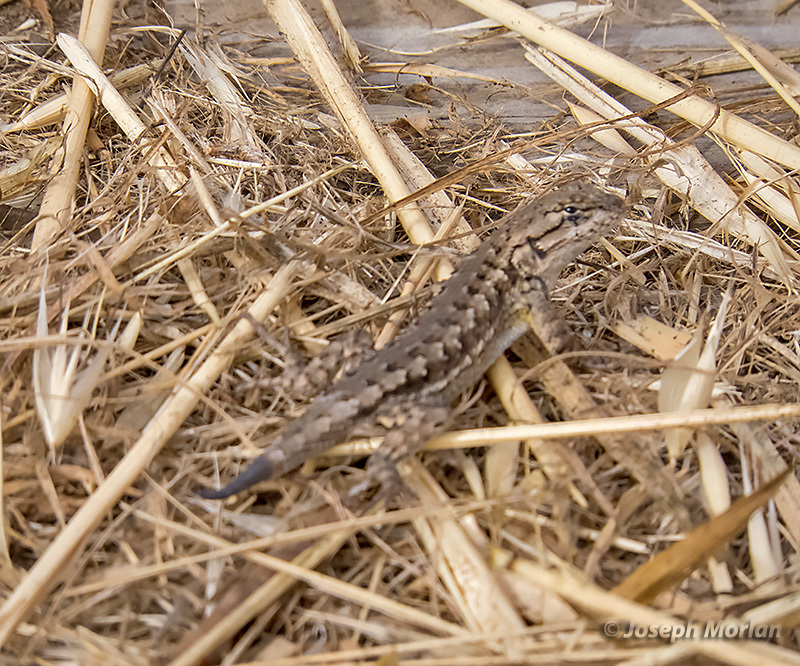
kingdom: Animalia
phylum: Chordata
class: Squamata
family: Phrynosomatidae
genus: Sceloporus
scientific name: Sceloporus occidentalis
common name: Western fence lizard
